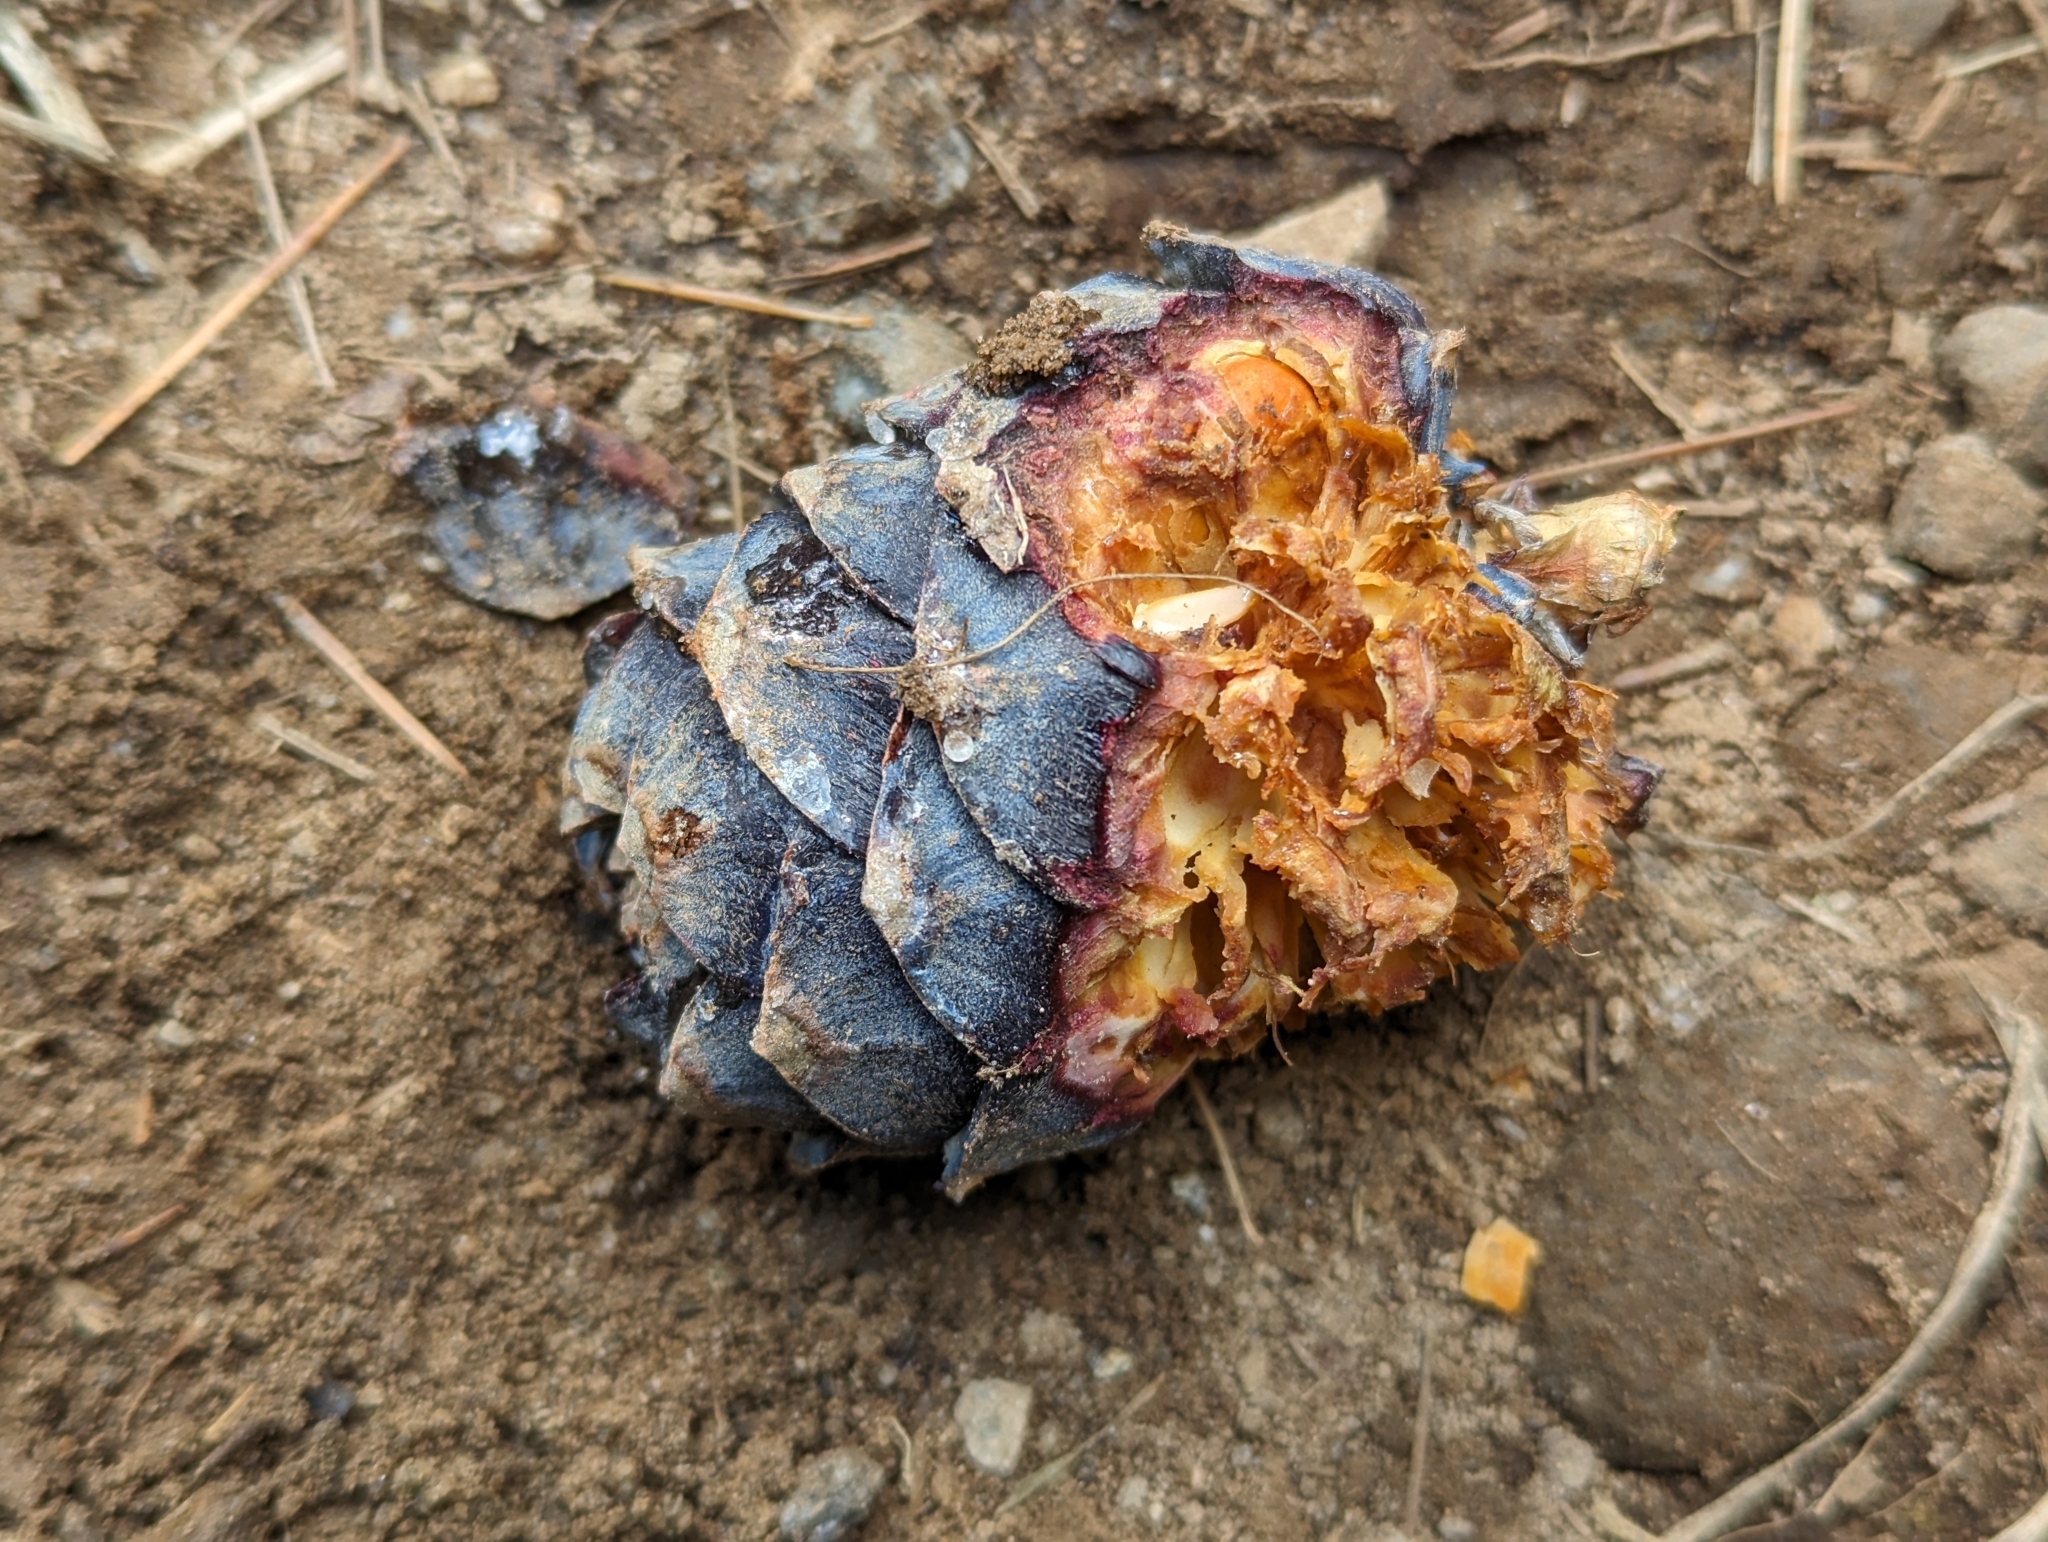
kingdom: Plantae
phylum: Tracheophyta
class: Pinopsida
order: Pinales
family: Pinaceae
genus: Pinus
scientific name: Pinus cembra
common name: Arolla pine
